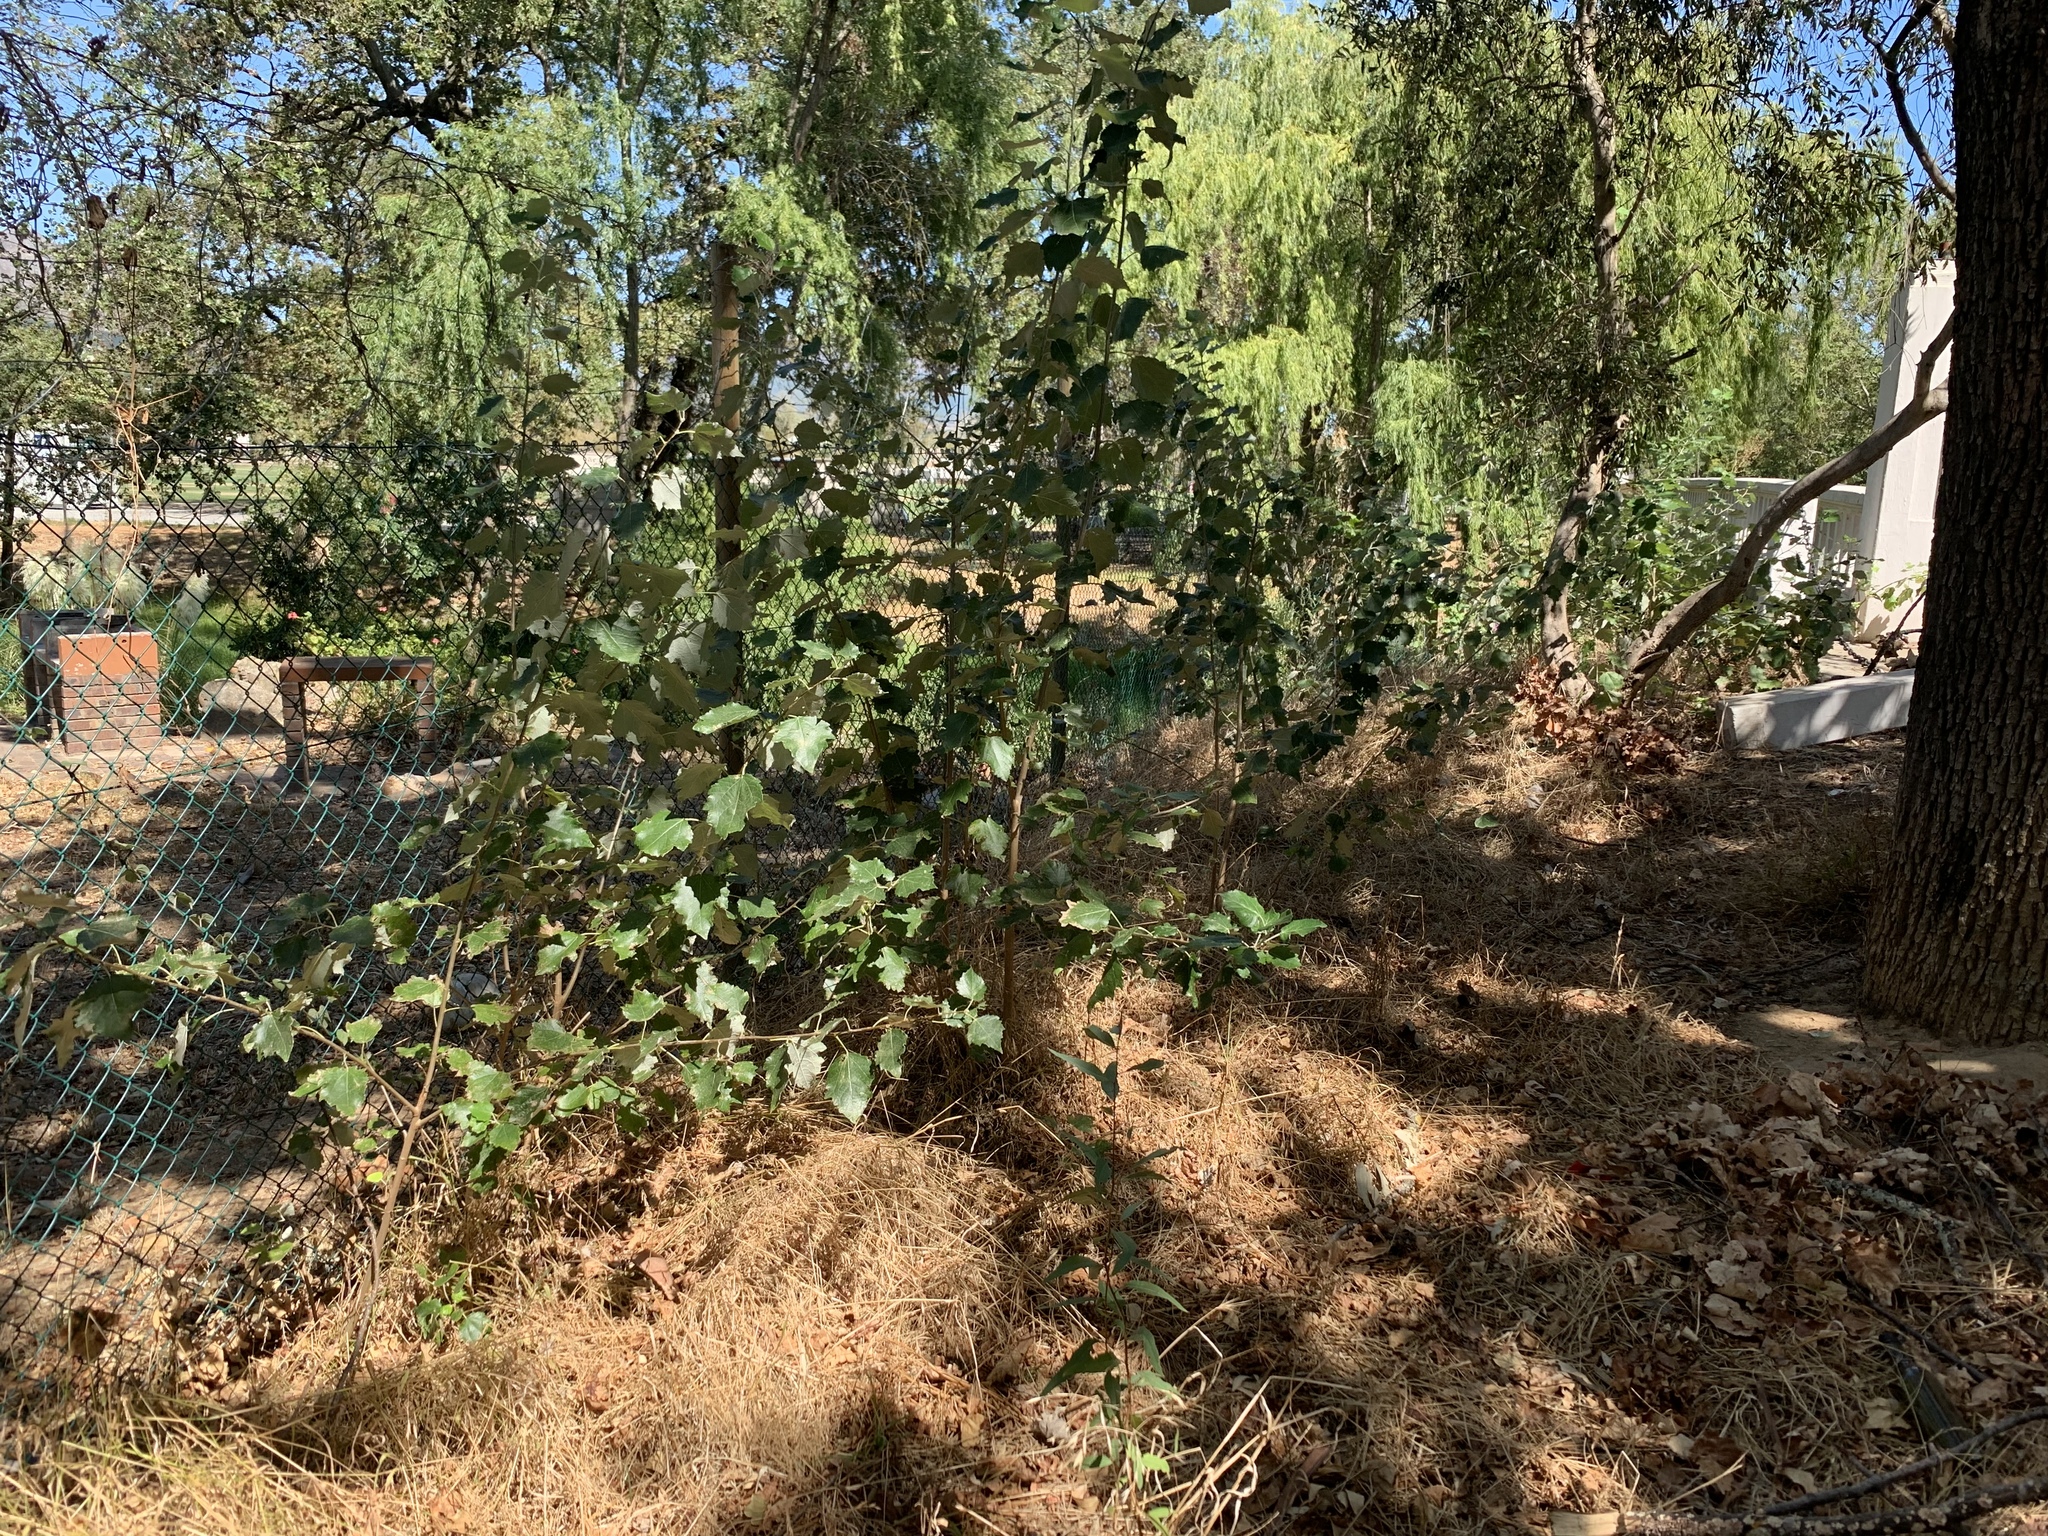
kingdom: Plantae
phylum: Tracheophyta
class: Magnoliopsida
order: Malpighiales
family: Salicaceae
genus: Populus
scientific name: Populus canescens
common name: Gray poplar
